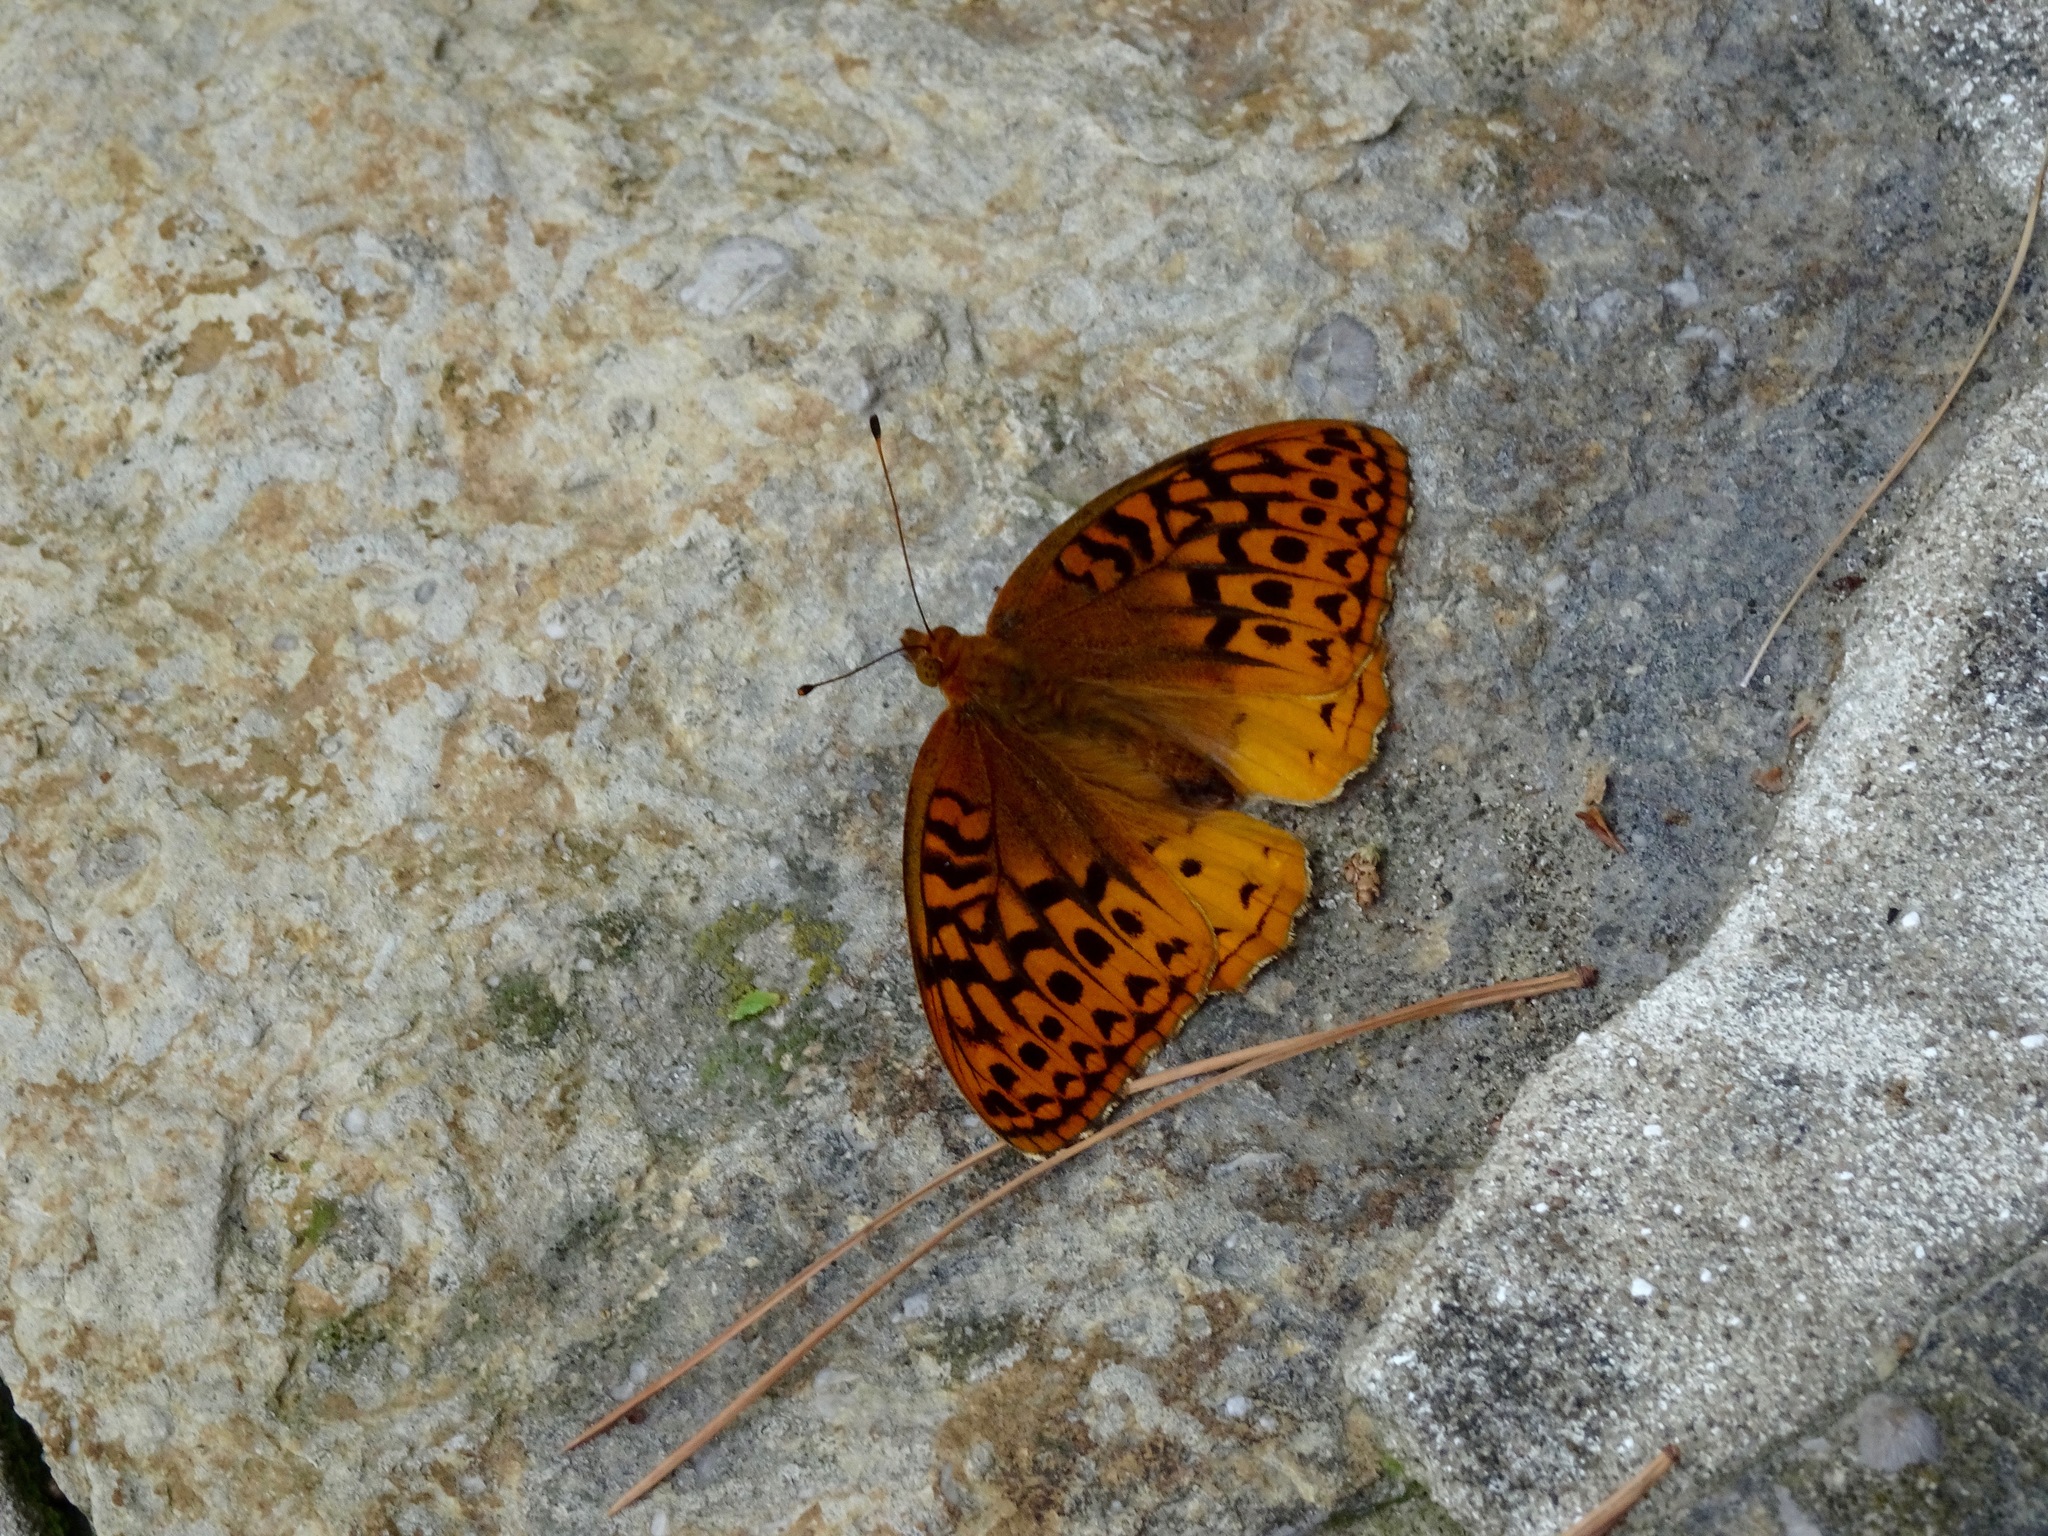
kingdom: Animalia
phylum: Arthropoda
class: Insecta
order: Lepidoptera
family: Nymphalidae
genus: Speyeria
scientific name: Speyeria cybele
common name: Great spangled fritillary
